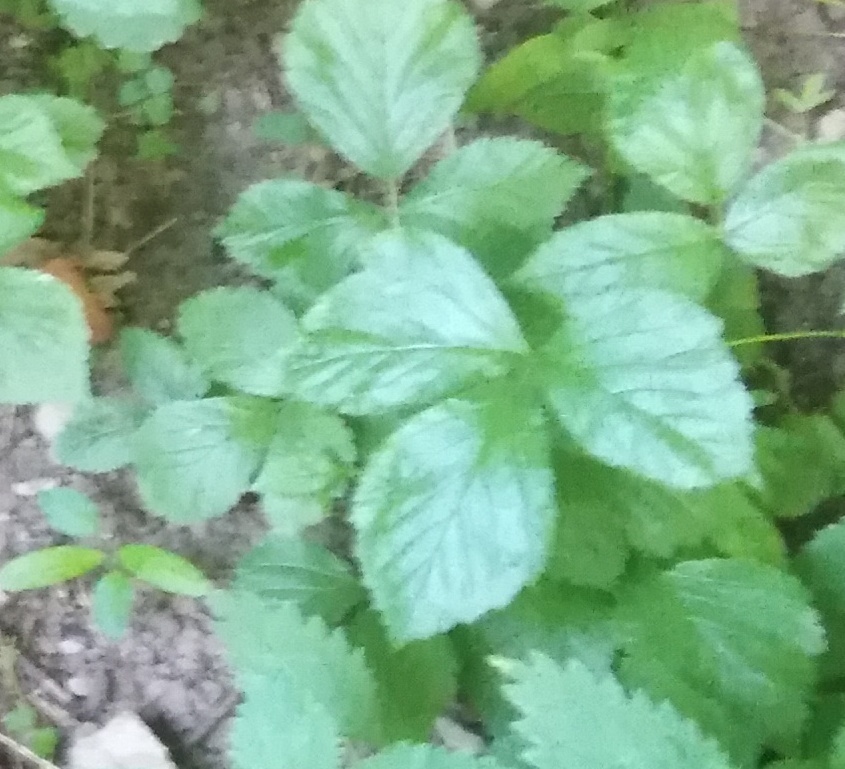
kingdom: Plantae
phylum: Tracheophyta
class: Magnoliopsida
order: Rosales
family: Rosaceae
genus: Rubus
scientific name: Rubus saxatilis
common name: Stone bramble
